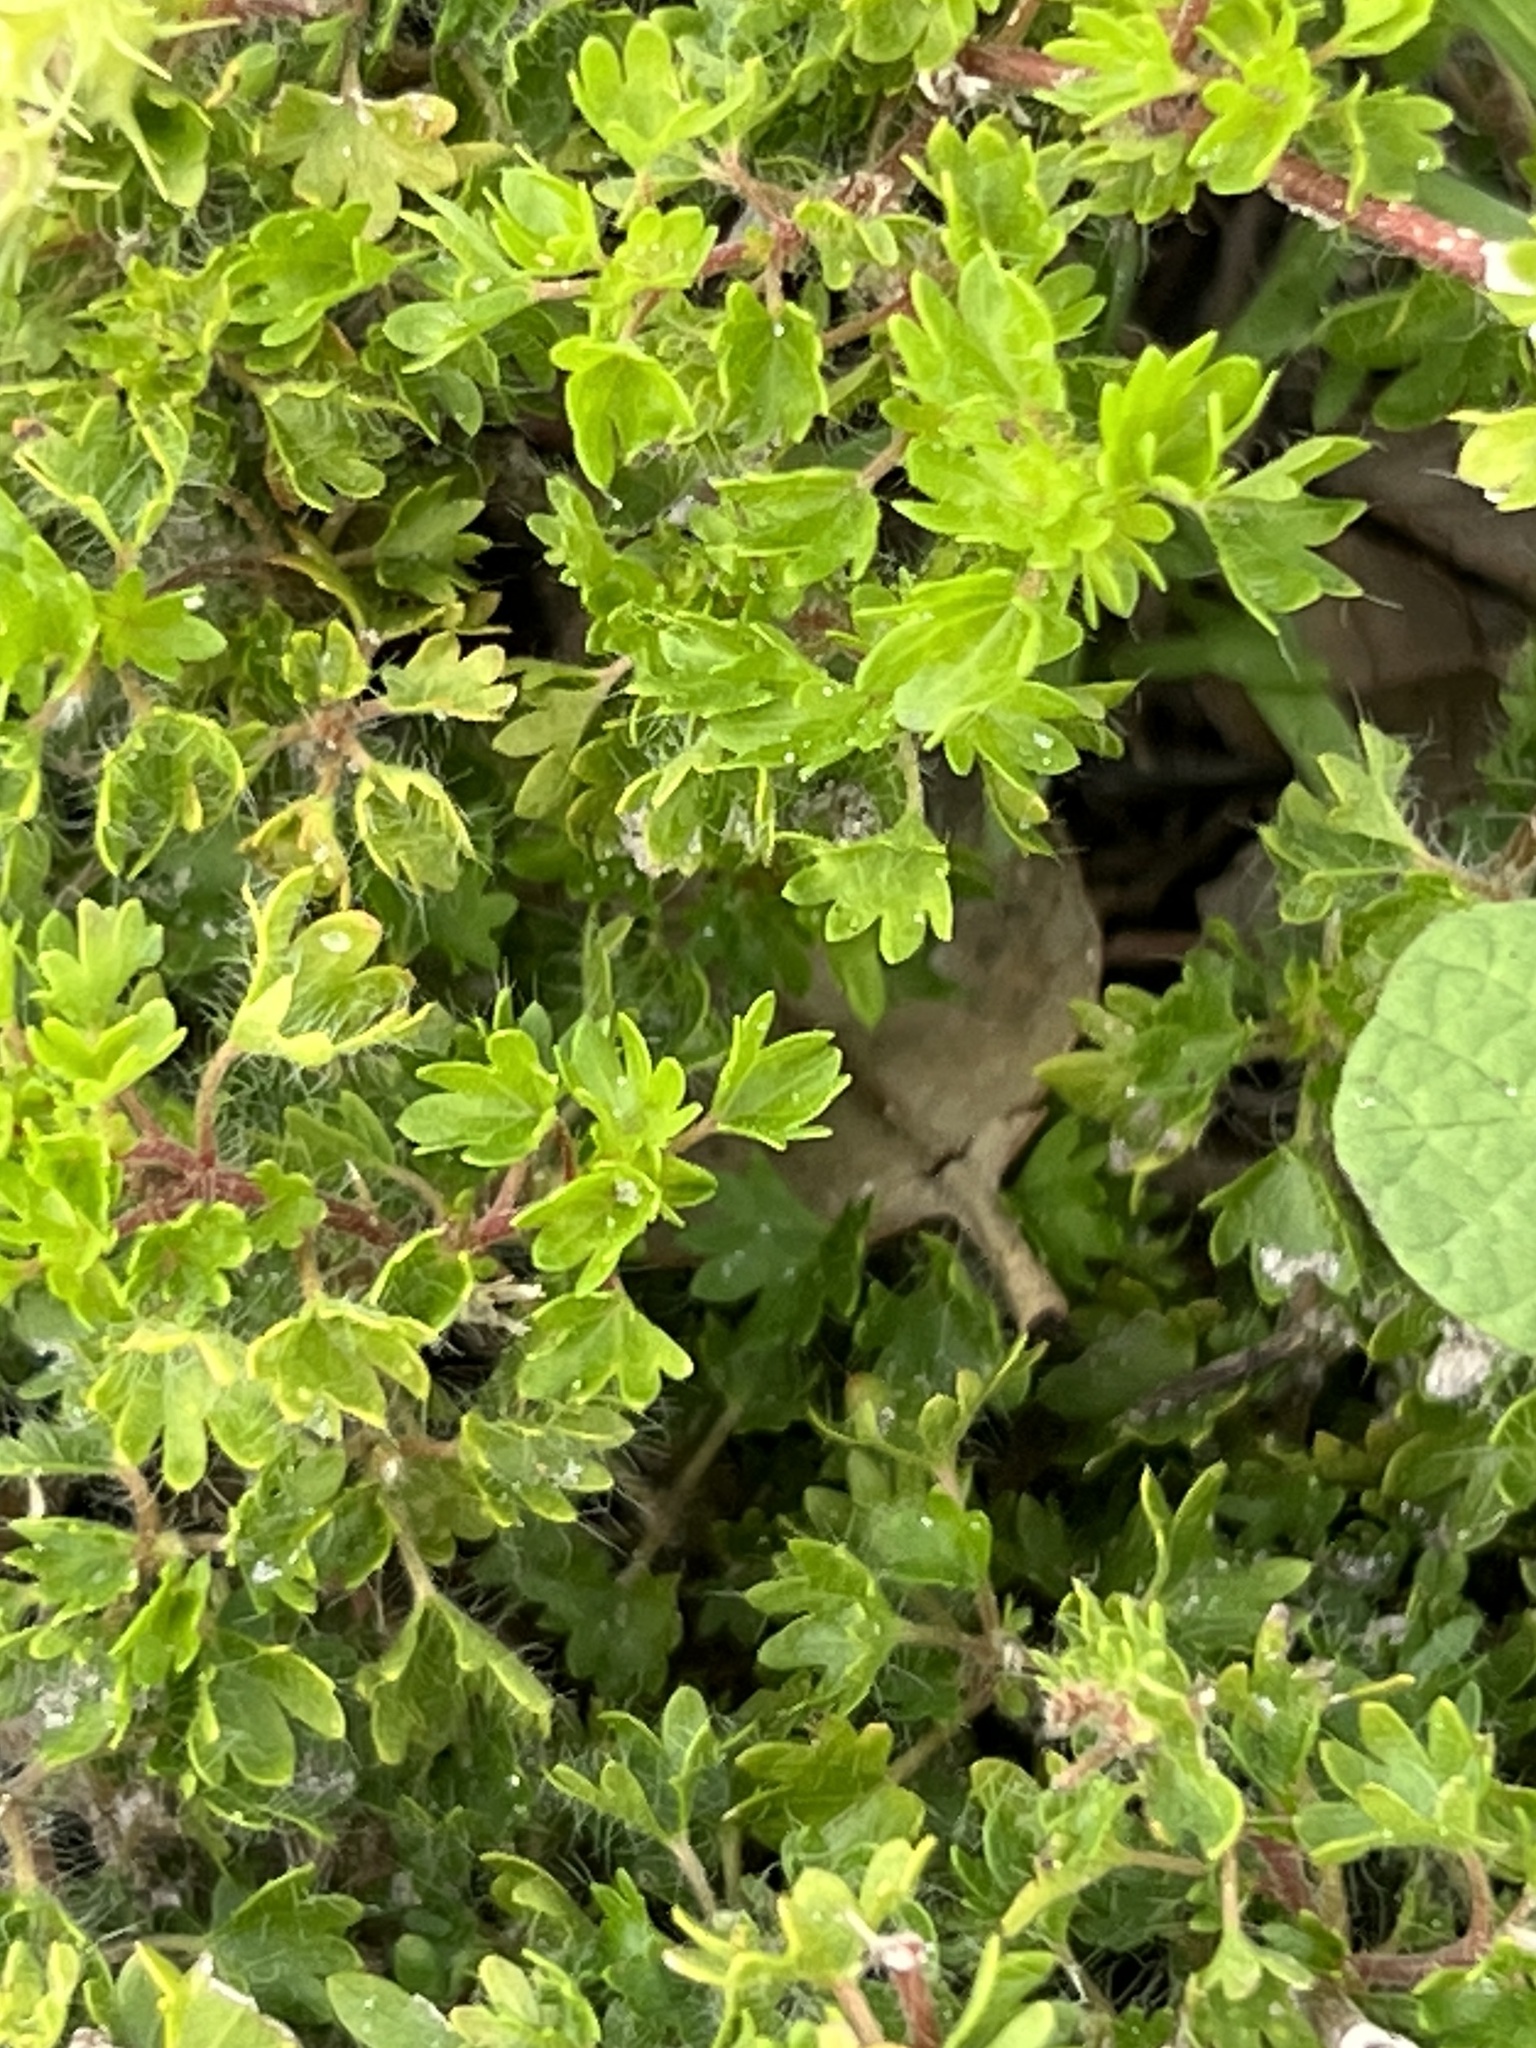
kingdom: Plantae
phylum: Tracheophyta
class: Magnoliopsida
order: Malpighiales
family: Euphorbiaceae
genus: Acalypha
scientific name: Acalypha radians
